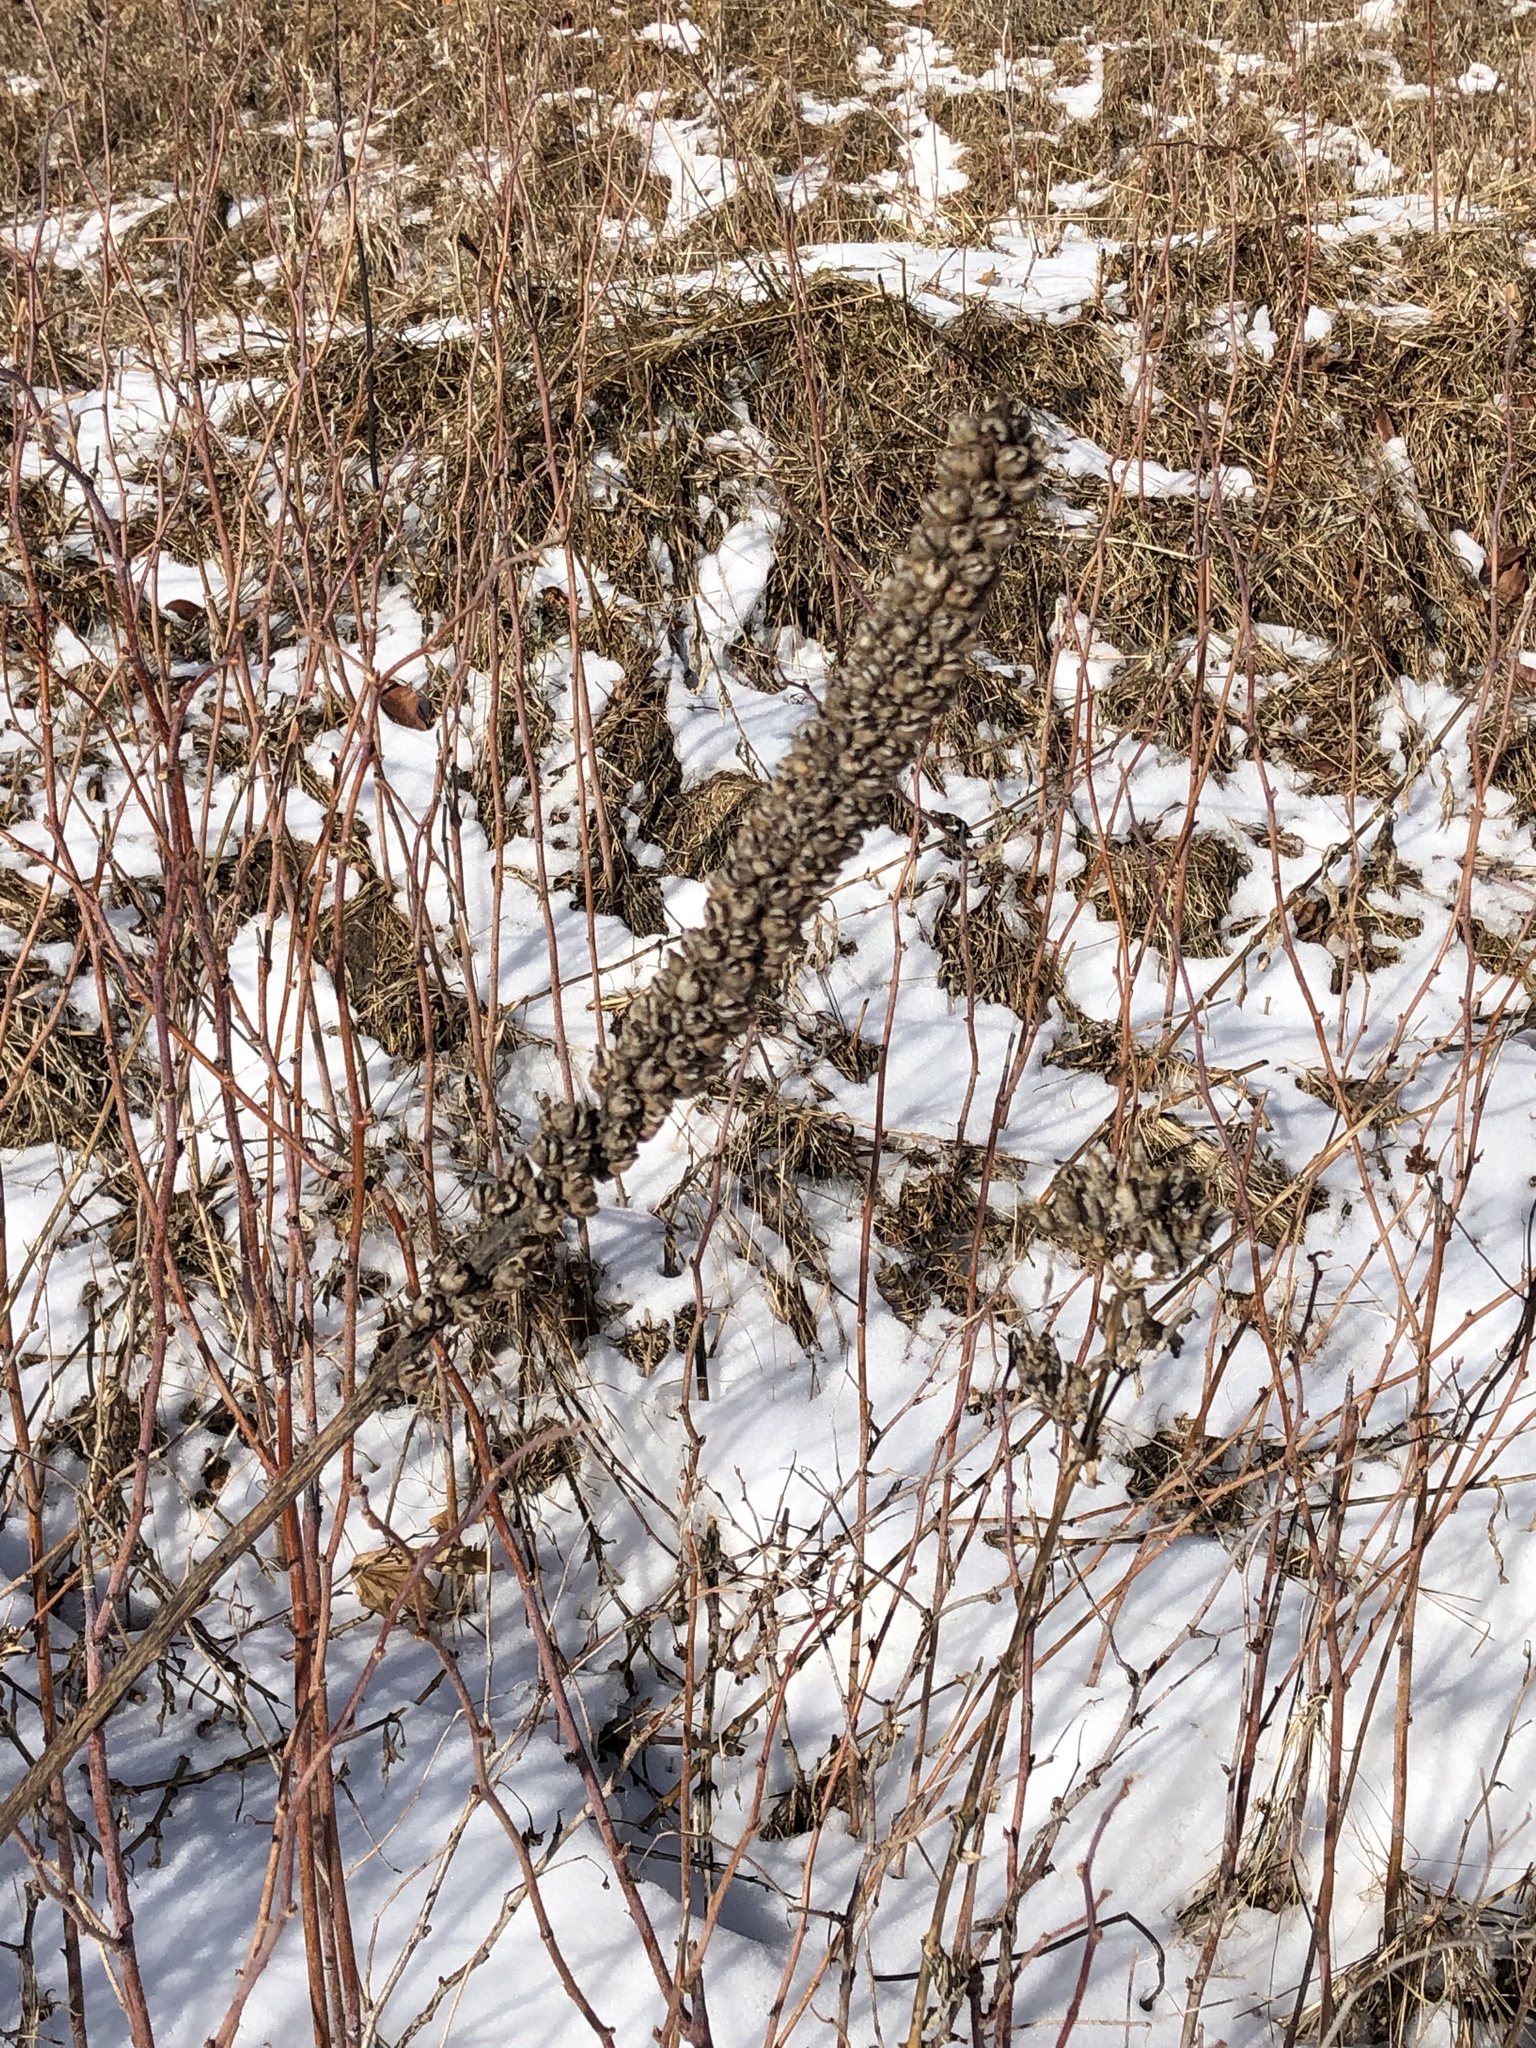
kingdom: Plantae
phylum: Tracheophyta
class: Magnoliopsida
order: Lamiales
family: Scrophulariaceae
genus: Verbascum
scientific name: Verbascum thapsus
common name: Common mullein
